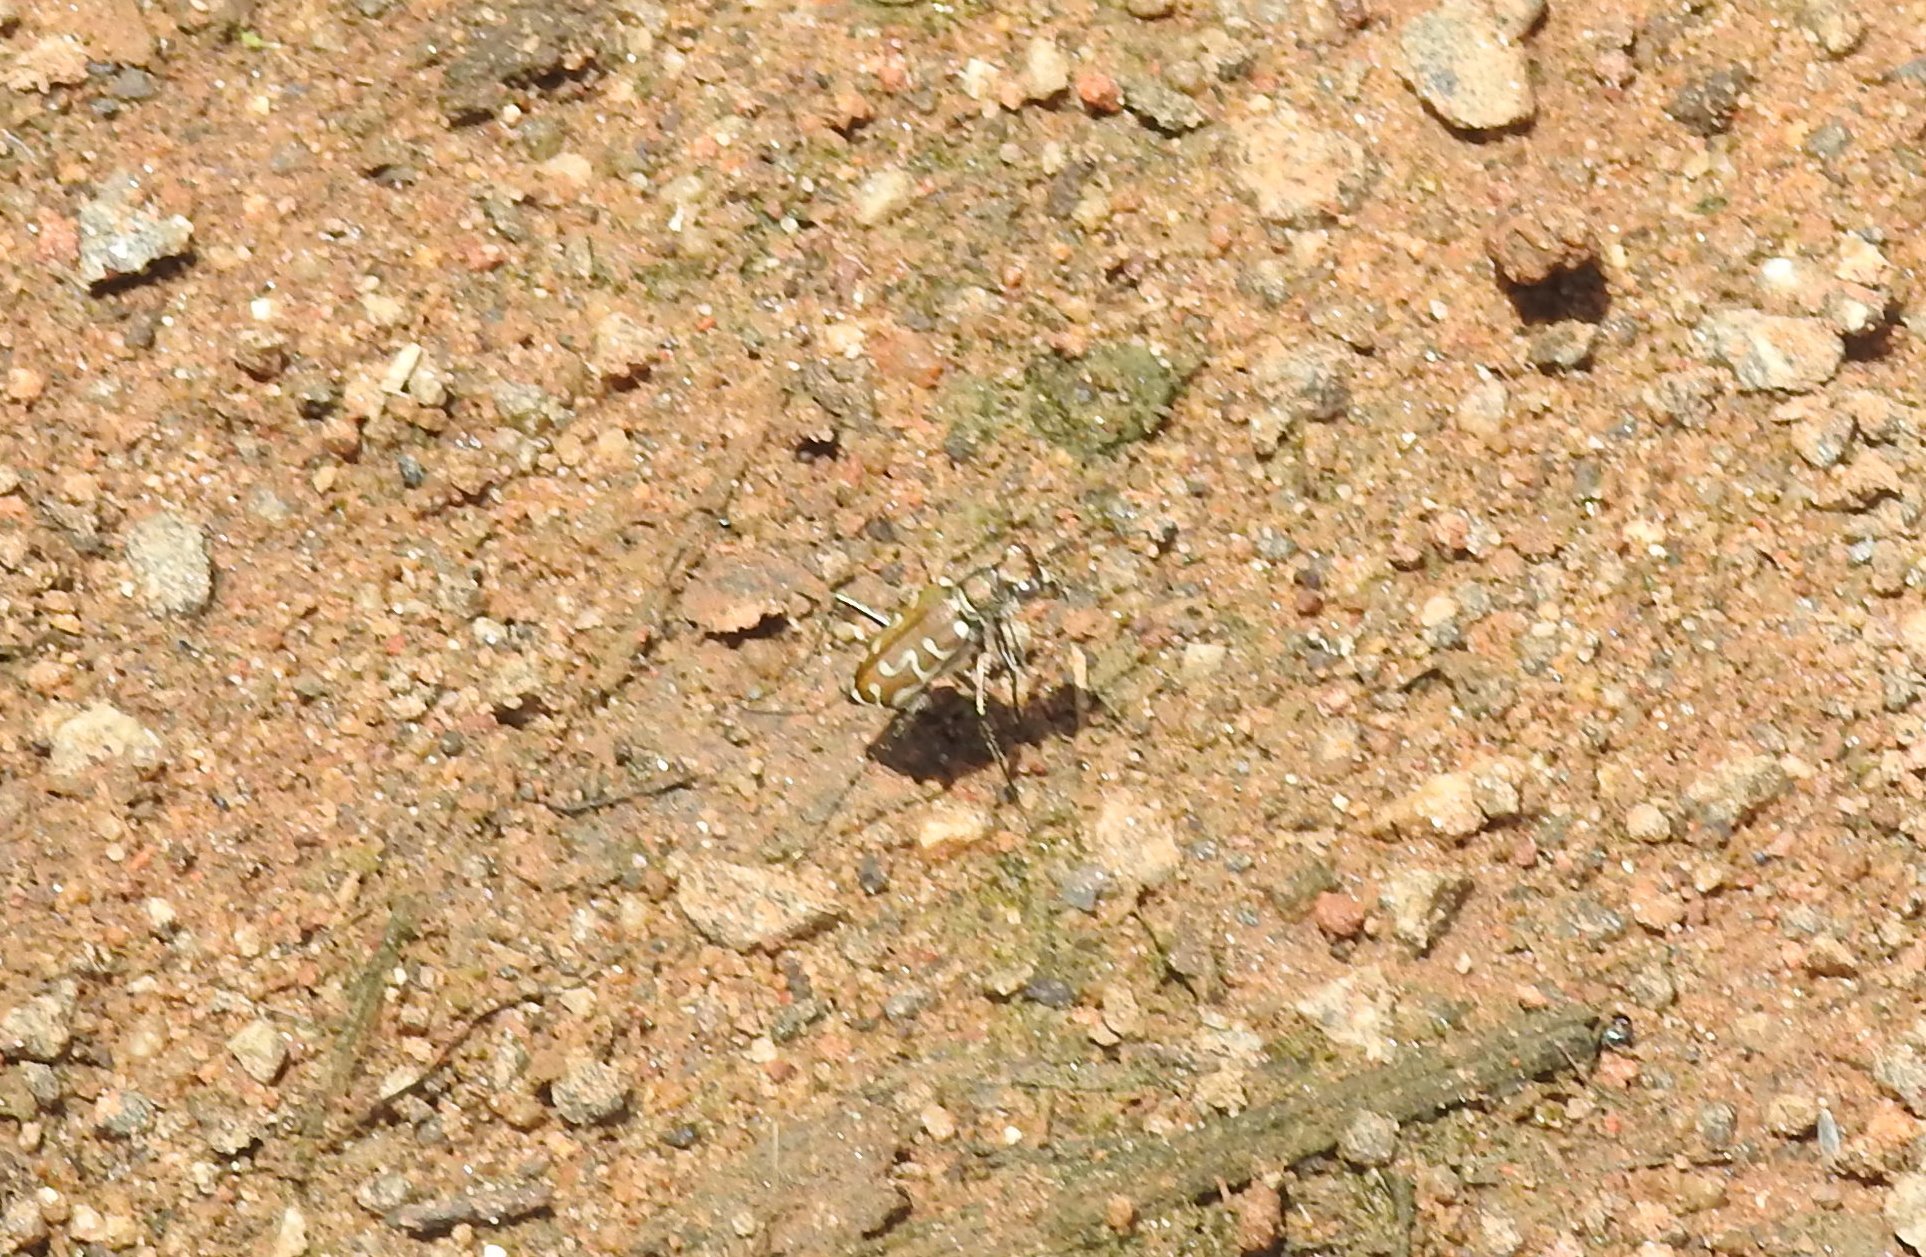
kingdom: Animalia
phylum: Arthropoda
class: Insecta
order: Coleoptera
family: Carabidae
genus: Cicindela
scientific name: Cicindela angulata
